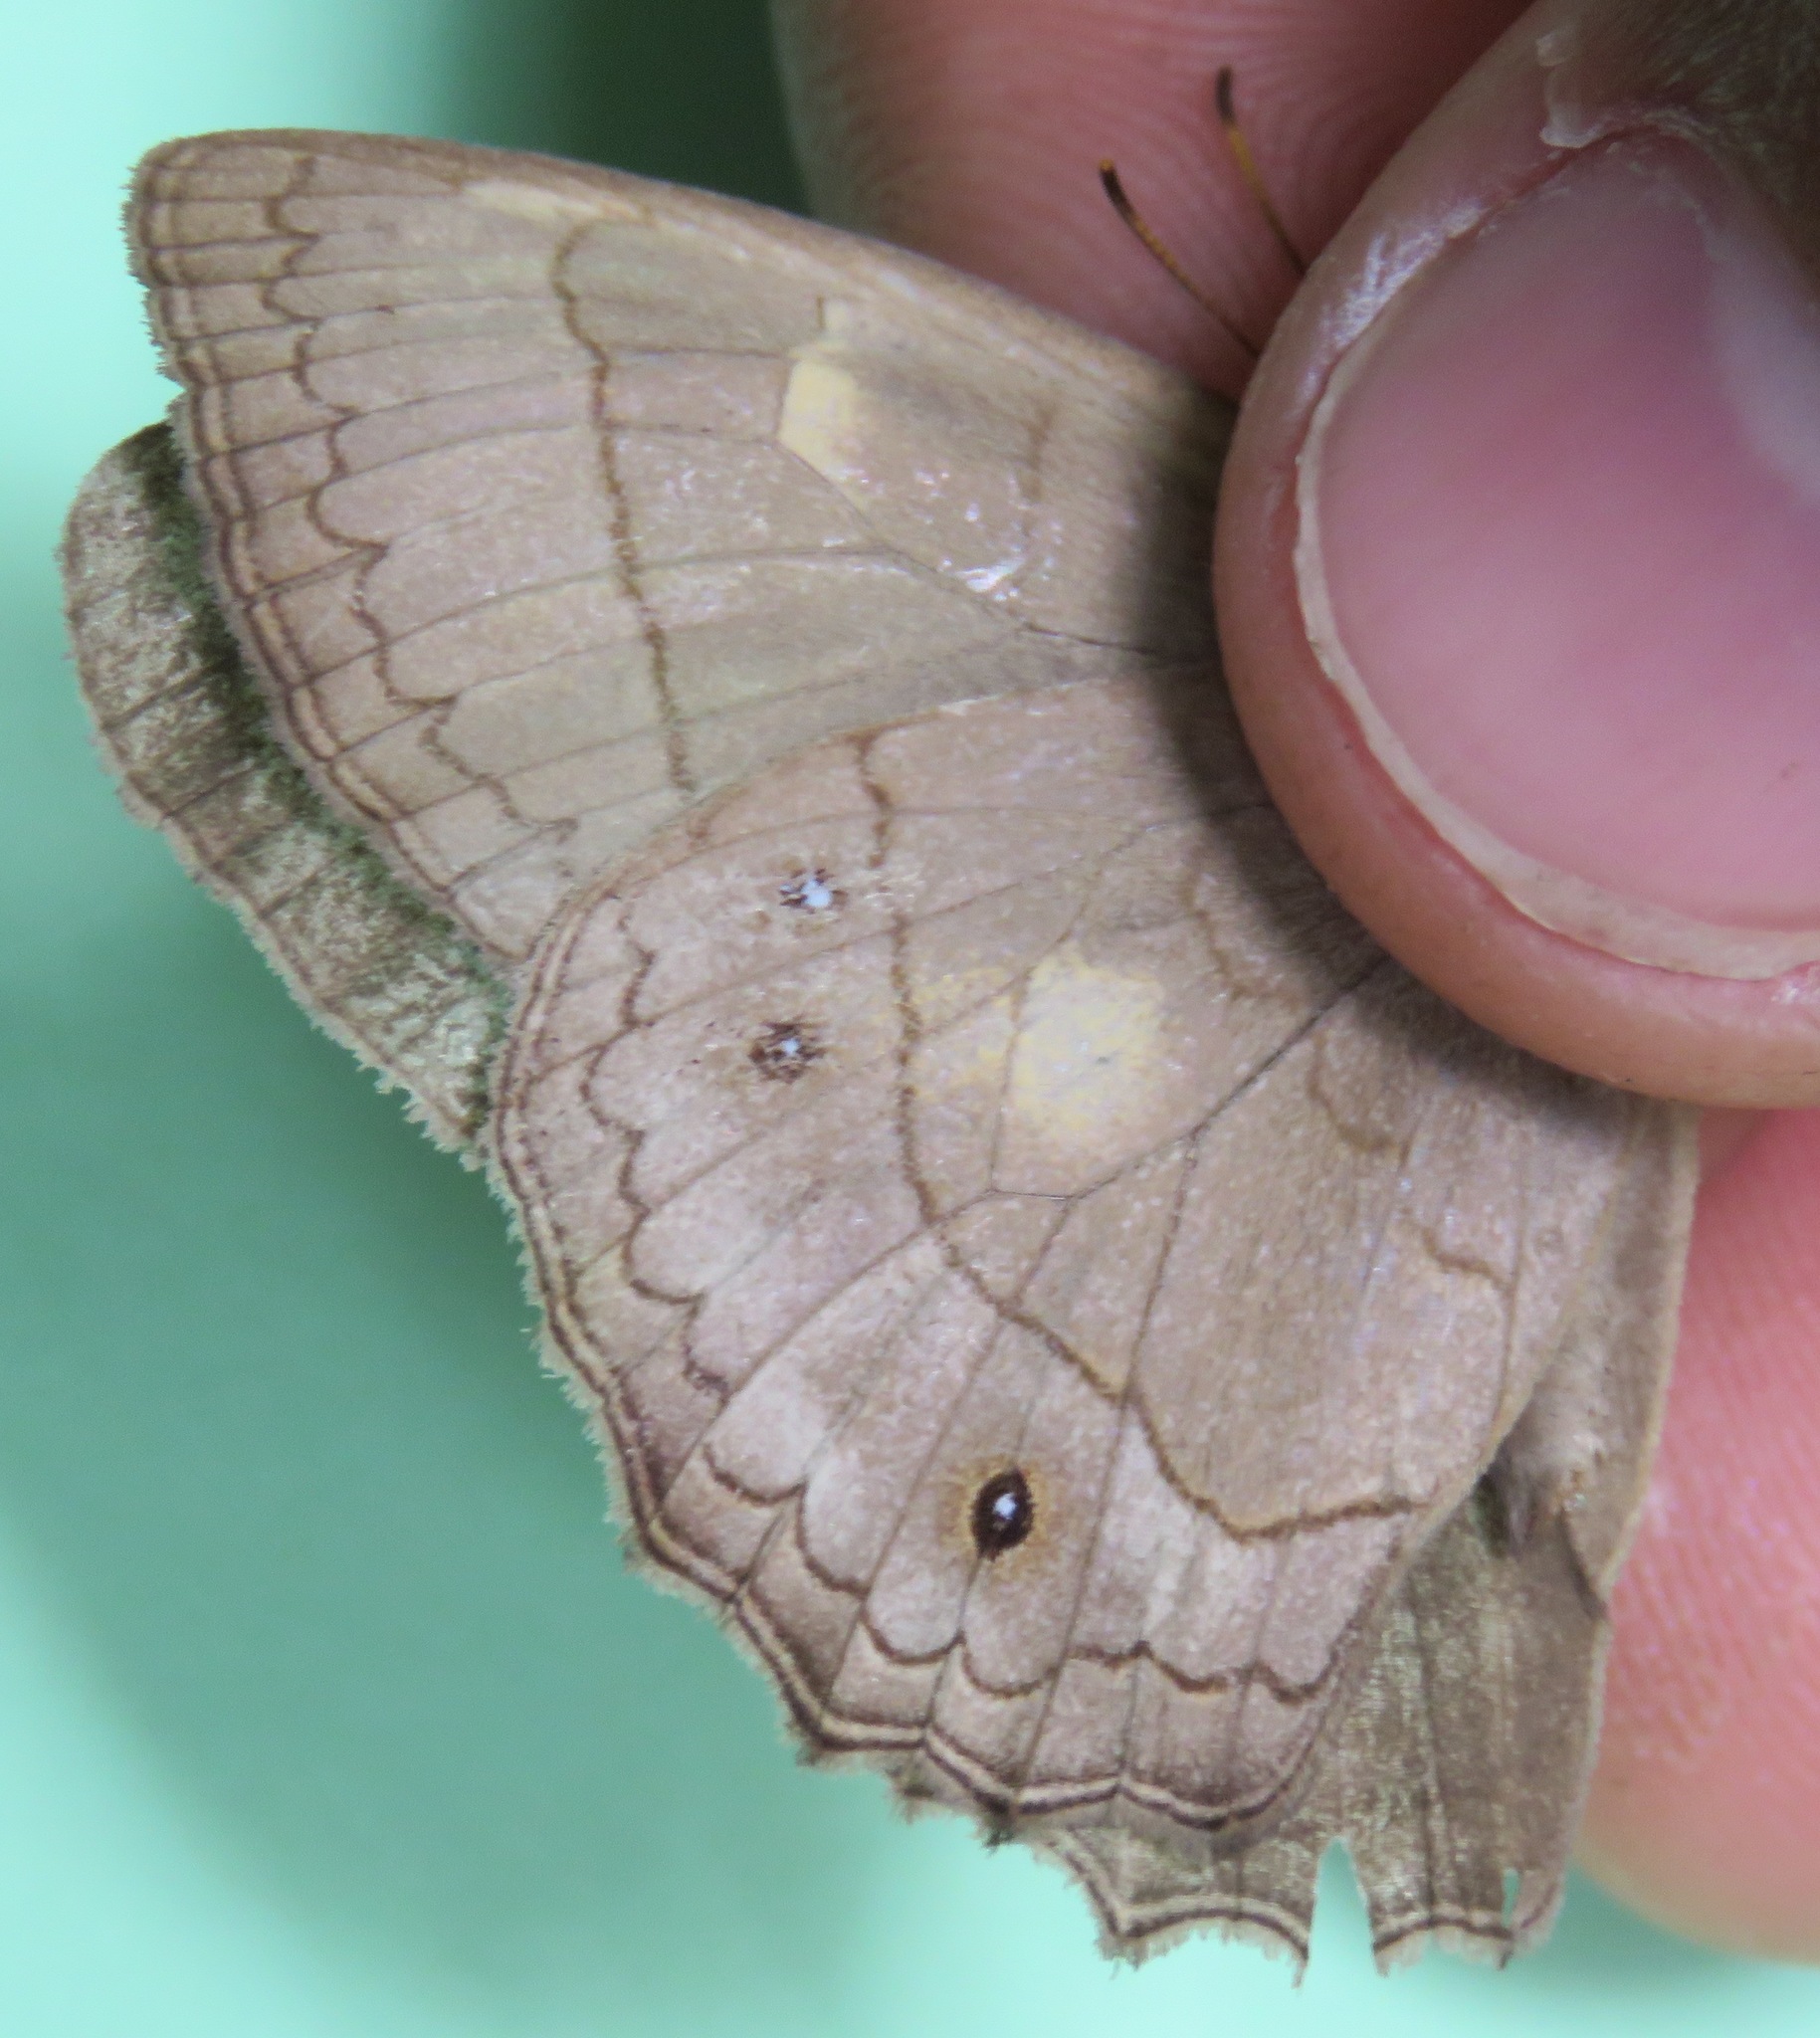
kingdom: Animalia
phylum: Arthropoda
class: Insecta
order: Lepidoptera
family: Nymphalidae
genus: Taygetina
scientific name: Taygetina kerea
